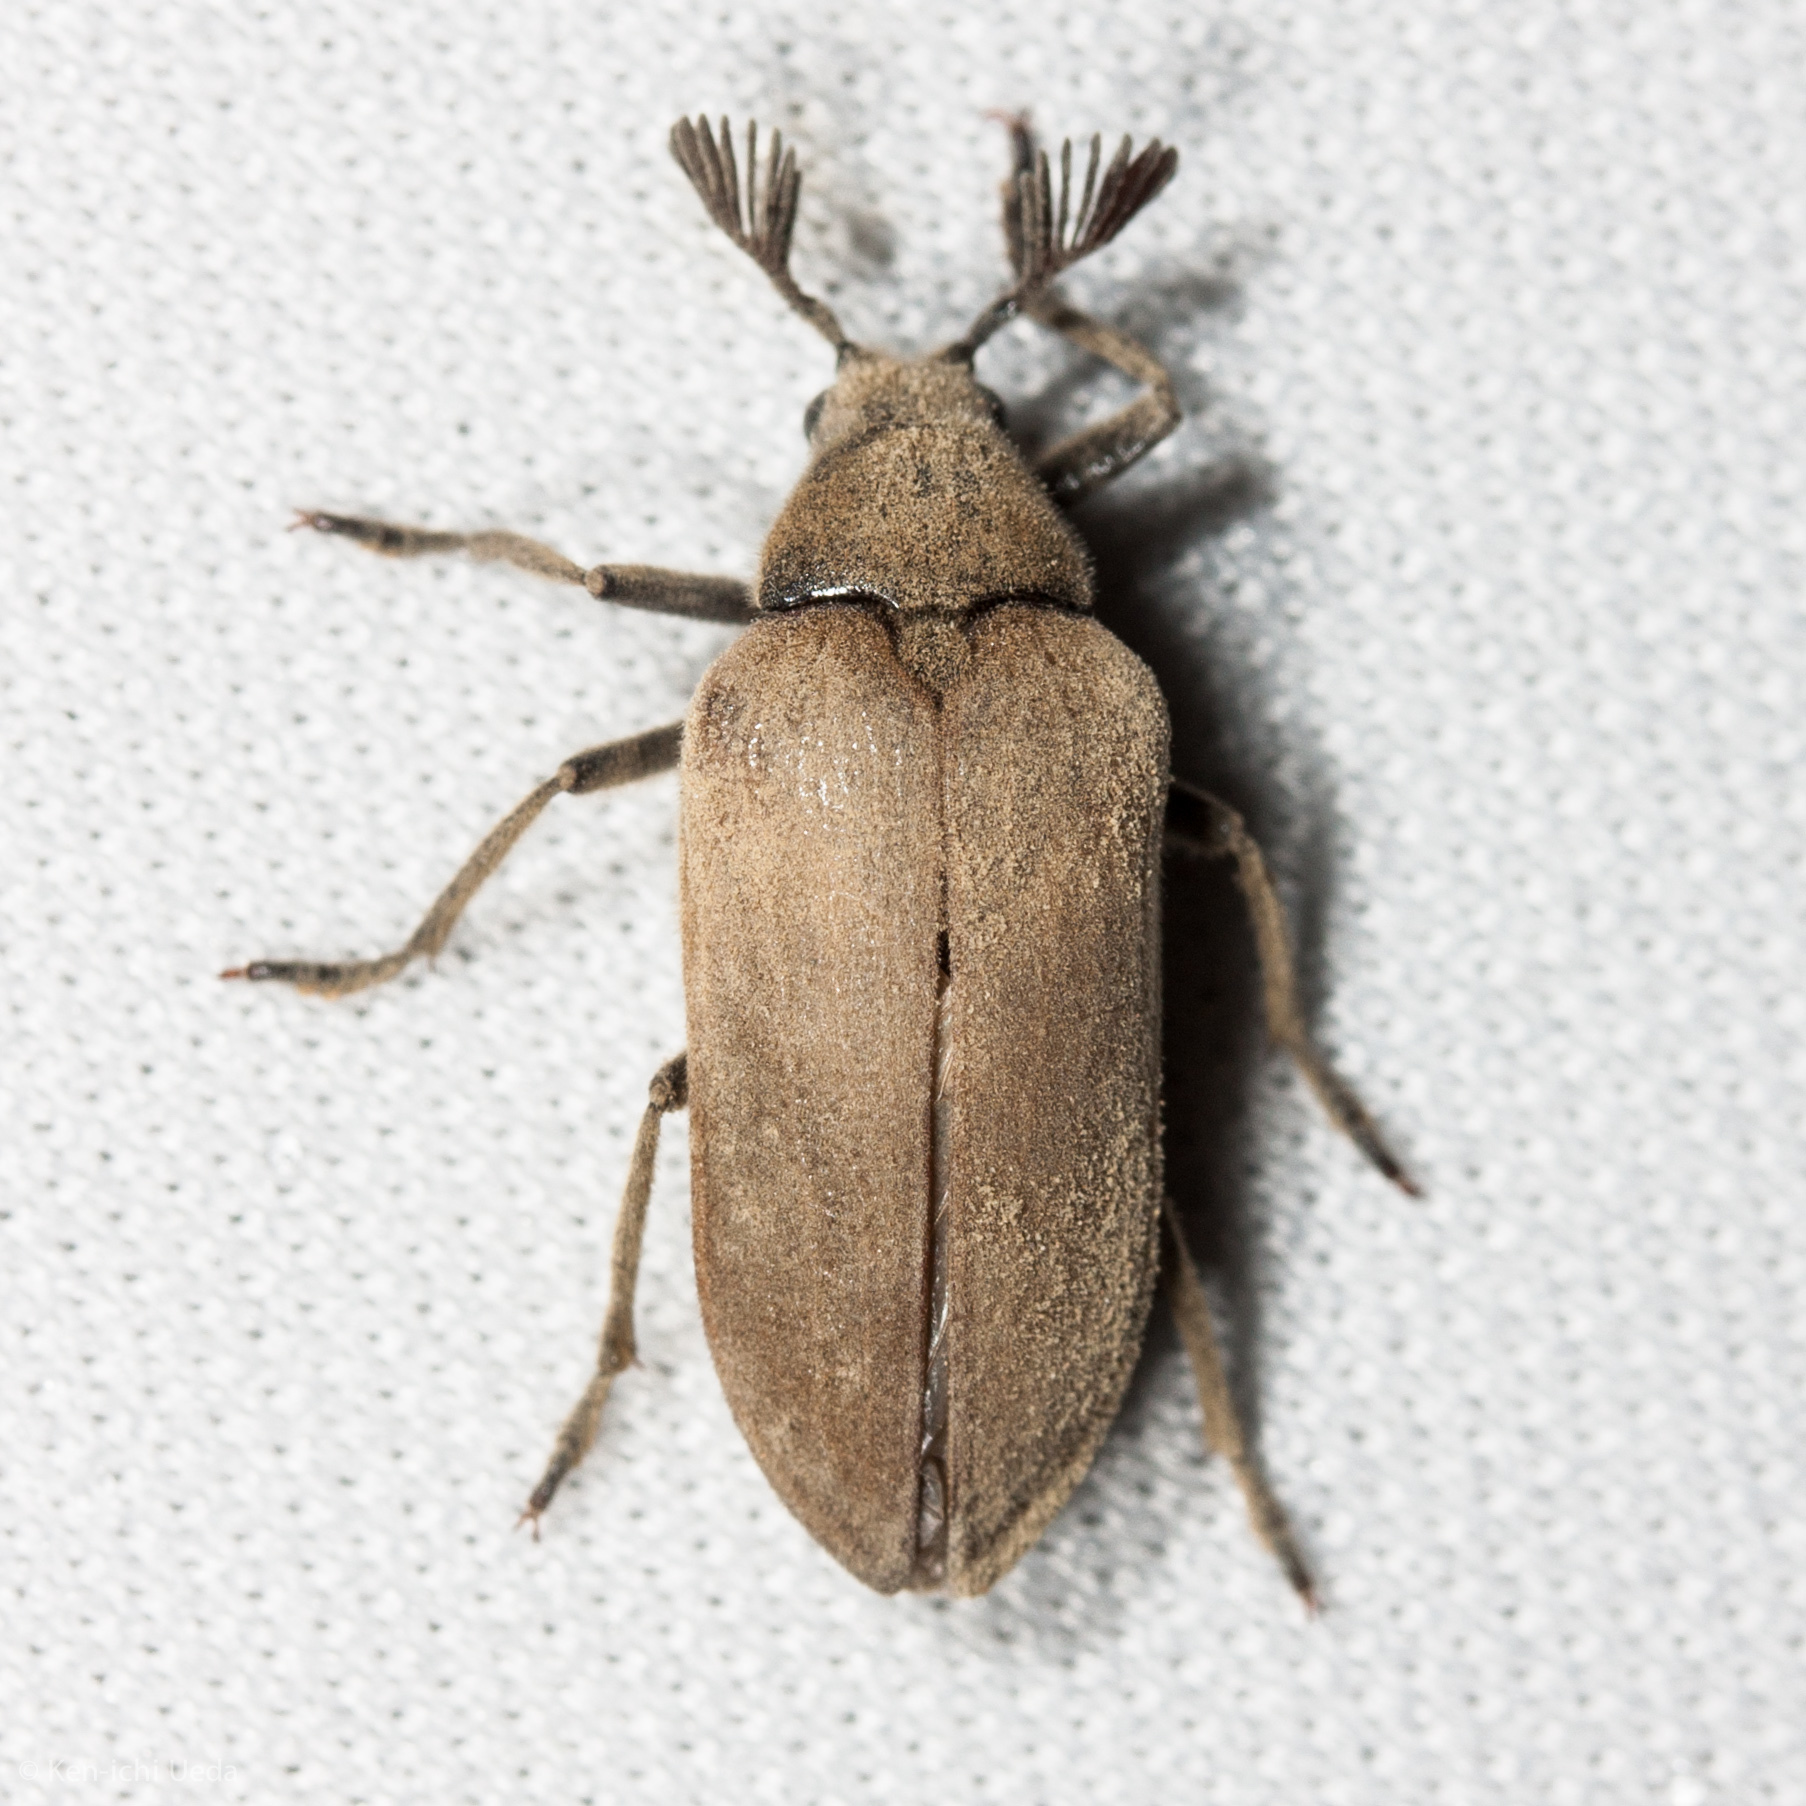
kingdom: Animalia
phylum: Arthropoda
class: Insecta
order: Coleoptera
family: Rhipiceridae
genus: Sandalus
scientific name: Sandalus californicus
